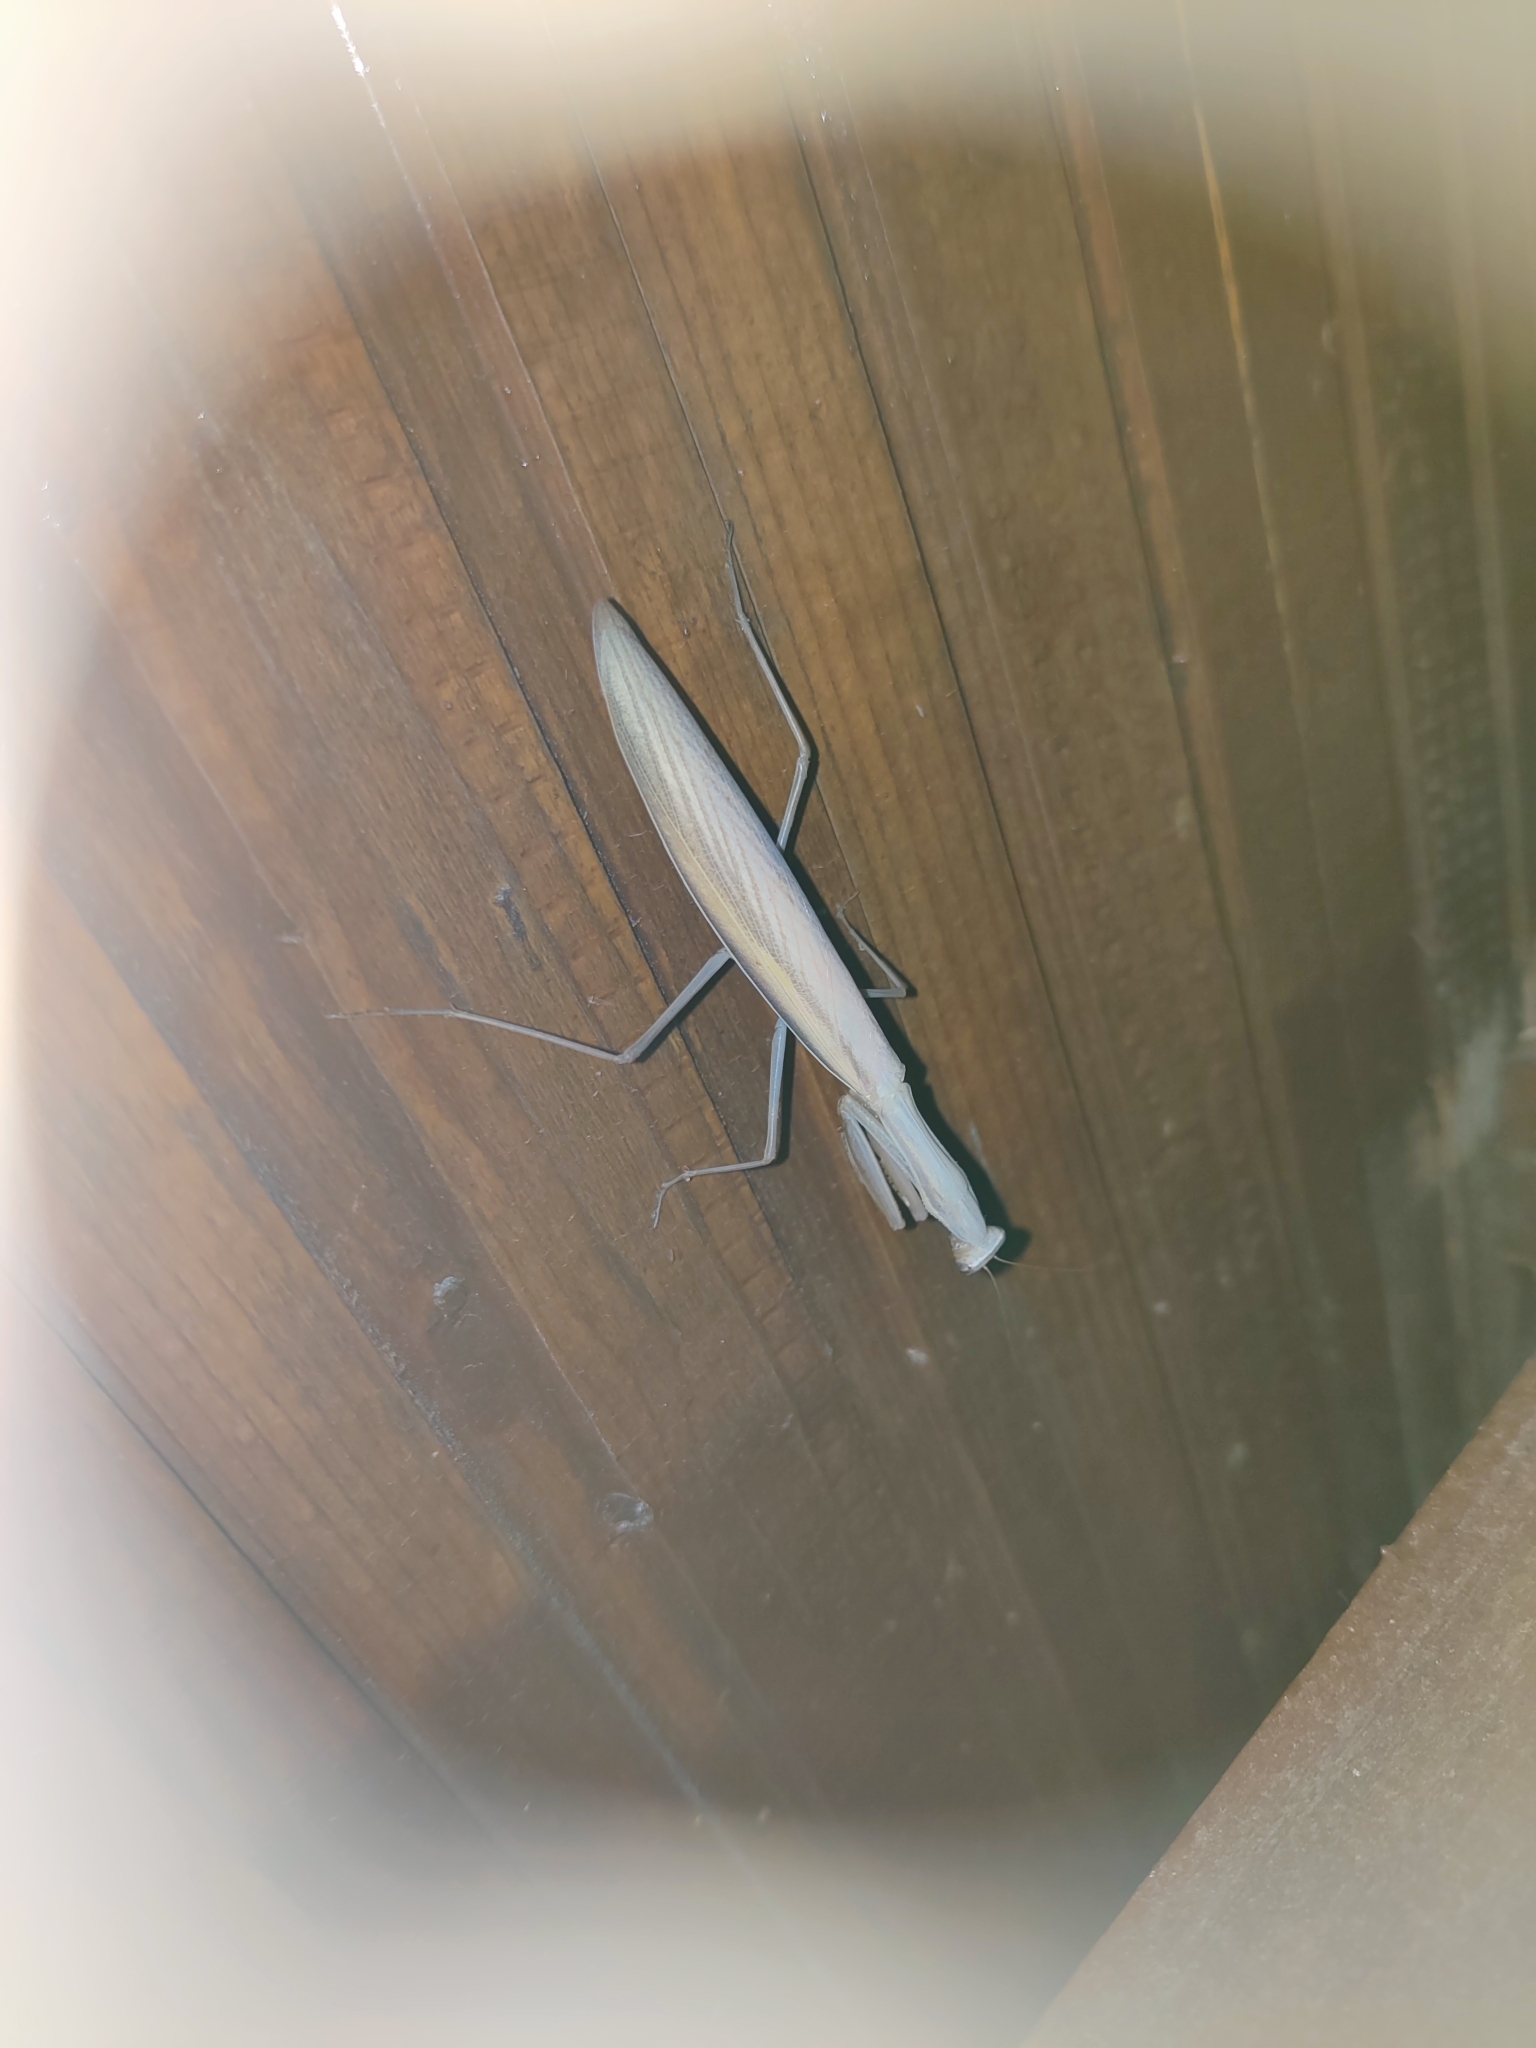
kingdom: Animalia
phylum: Arthropoda
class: Insecta
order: Mantodea
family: Mantidae
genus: Mantis
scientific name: Mantis religiosa
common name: Praying mantis
